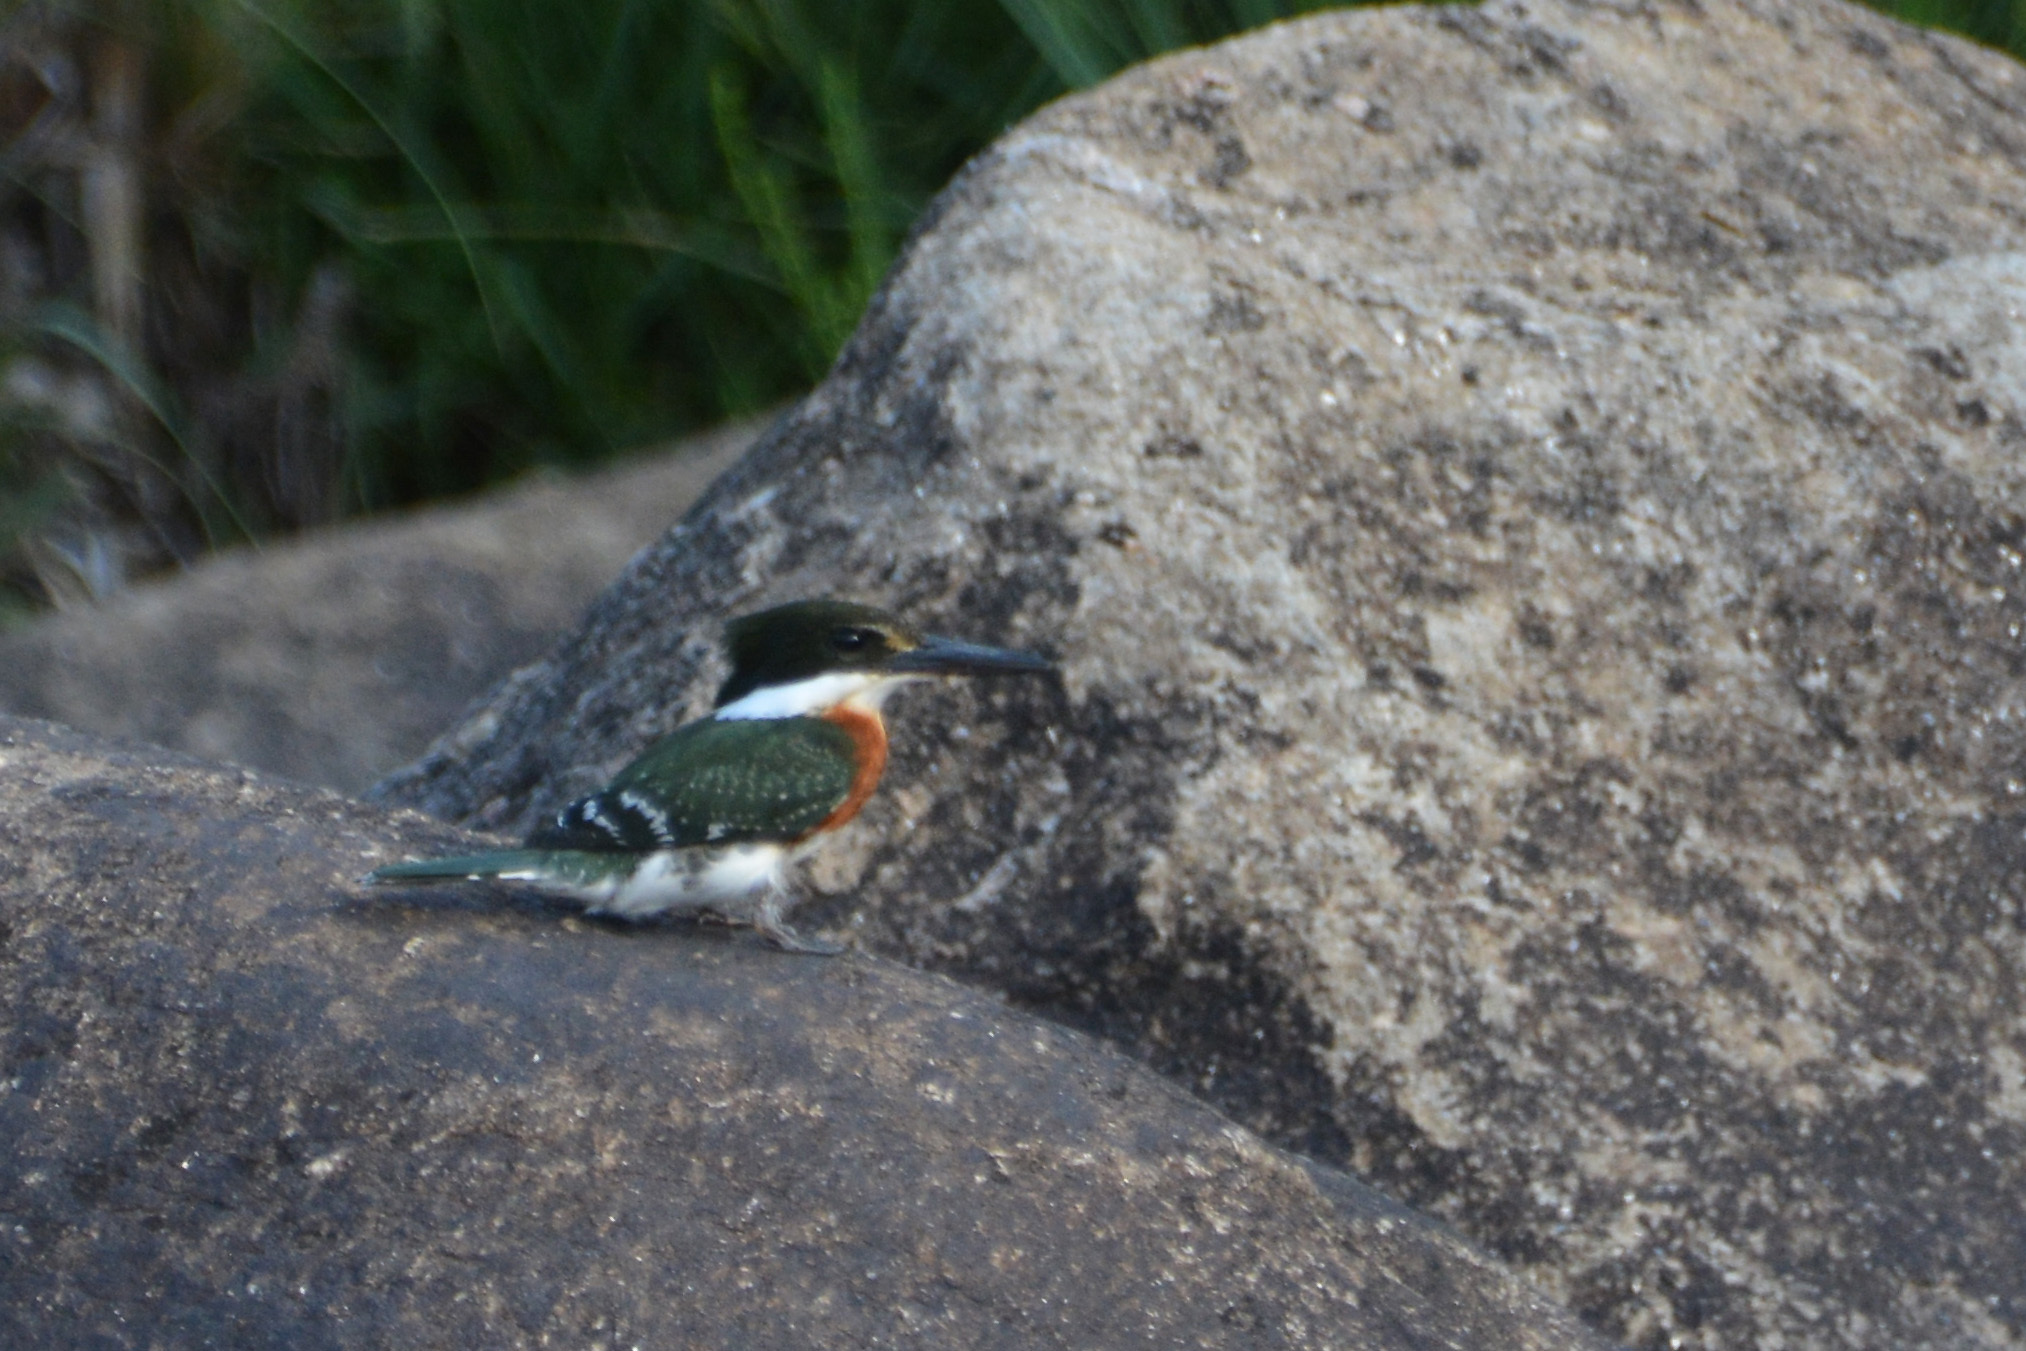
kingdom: Animalia
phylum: Chordata
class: Aves
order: Coraciiformes
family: Alcedinidae
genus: Chloroceryle
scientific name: Chloroceryle americana
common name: Green kingfisher
